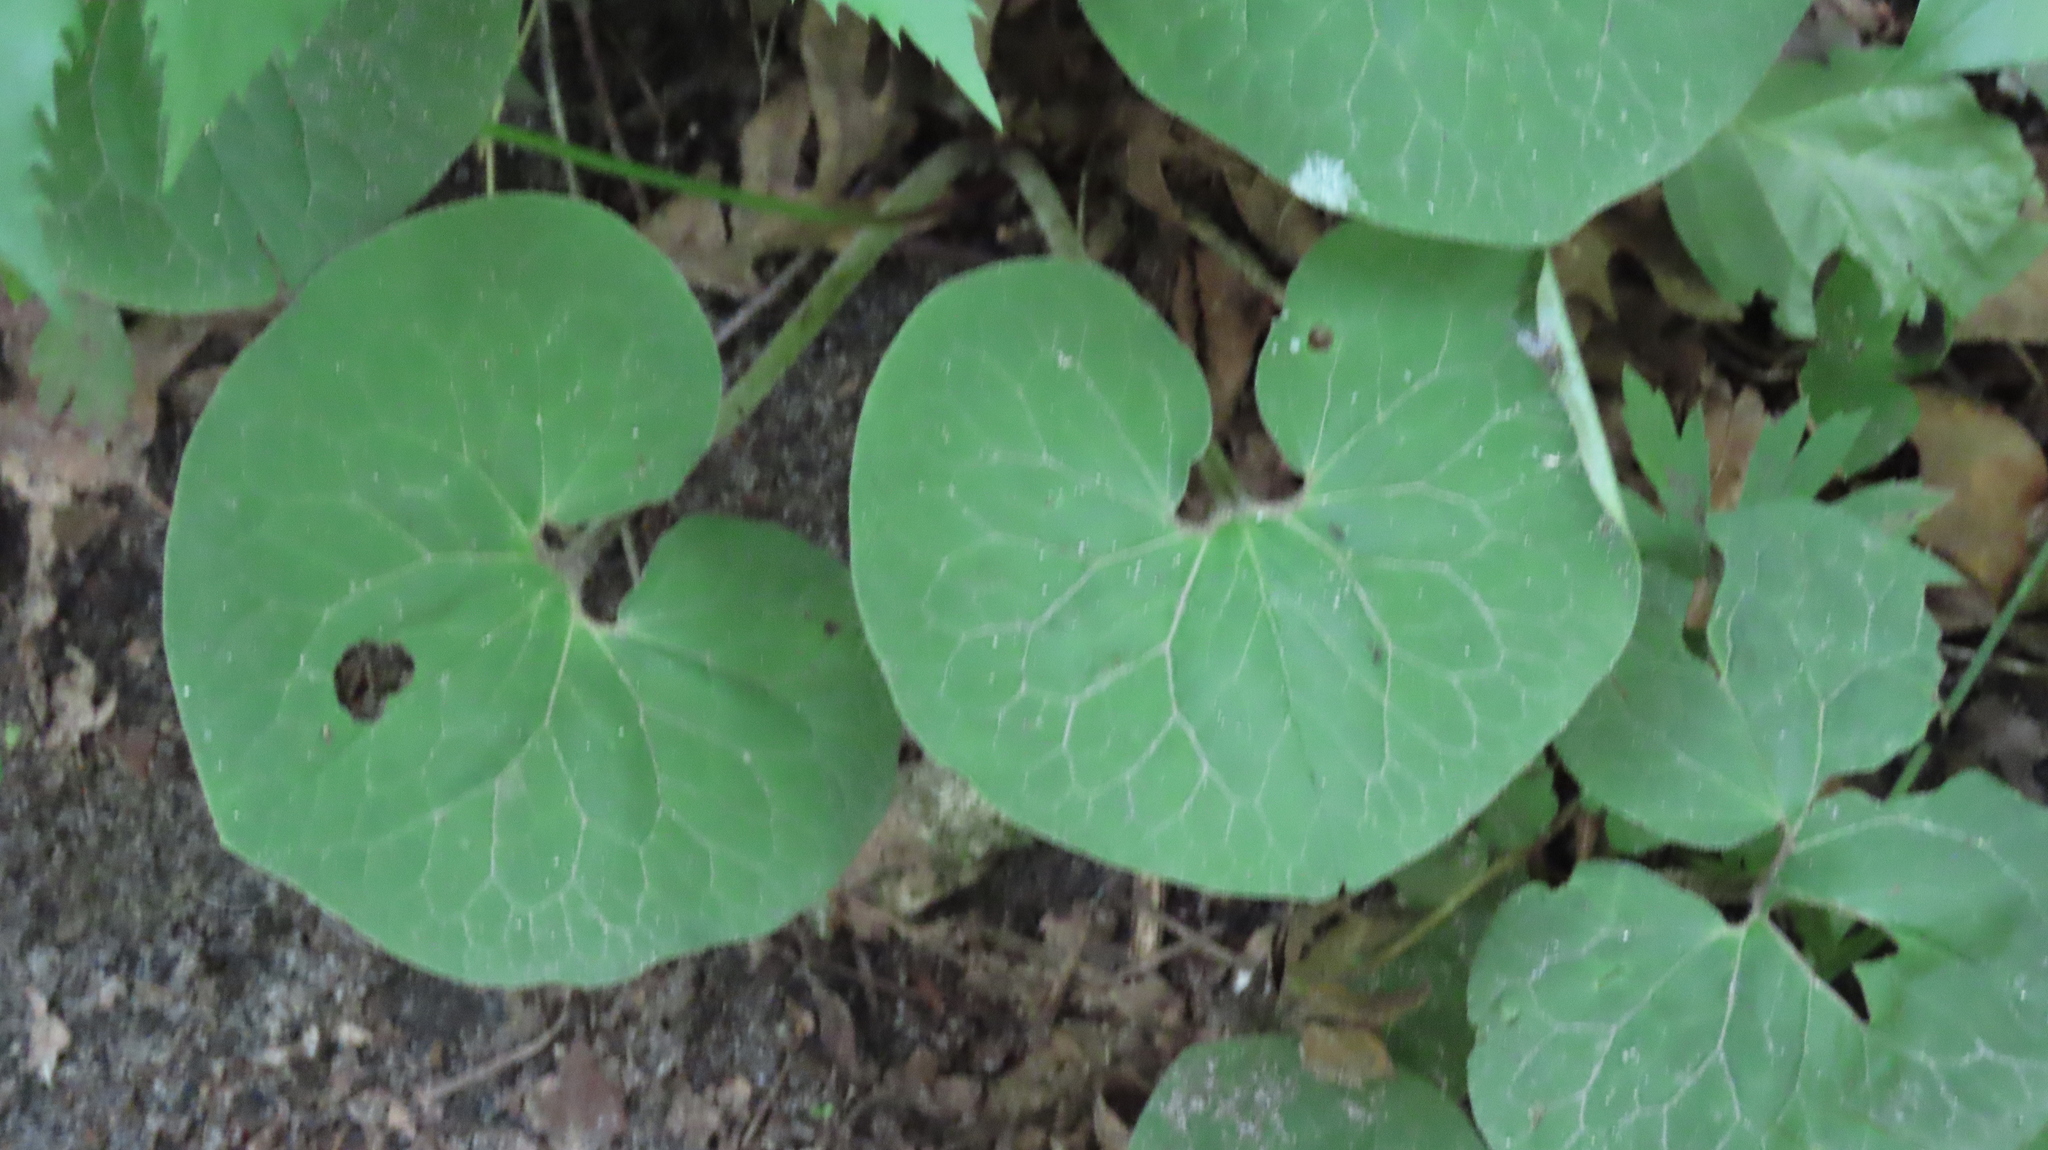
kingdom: Plantae
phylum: Tracheophyta
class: Magnoliopsida
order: Ranunculales
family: Papaveraceae
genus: Sanguinaria
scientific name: Sanguinaria canadensis
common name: Bloodroot
